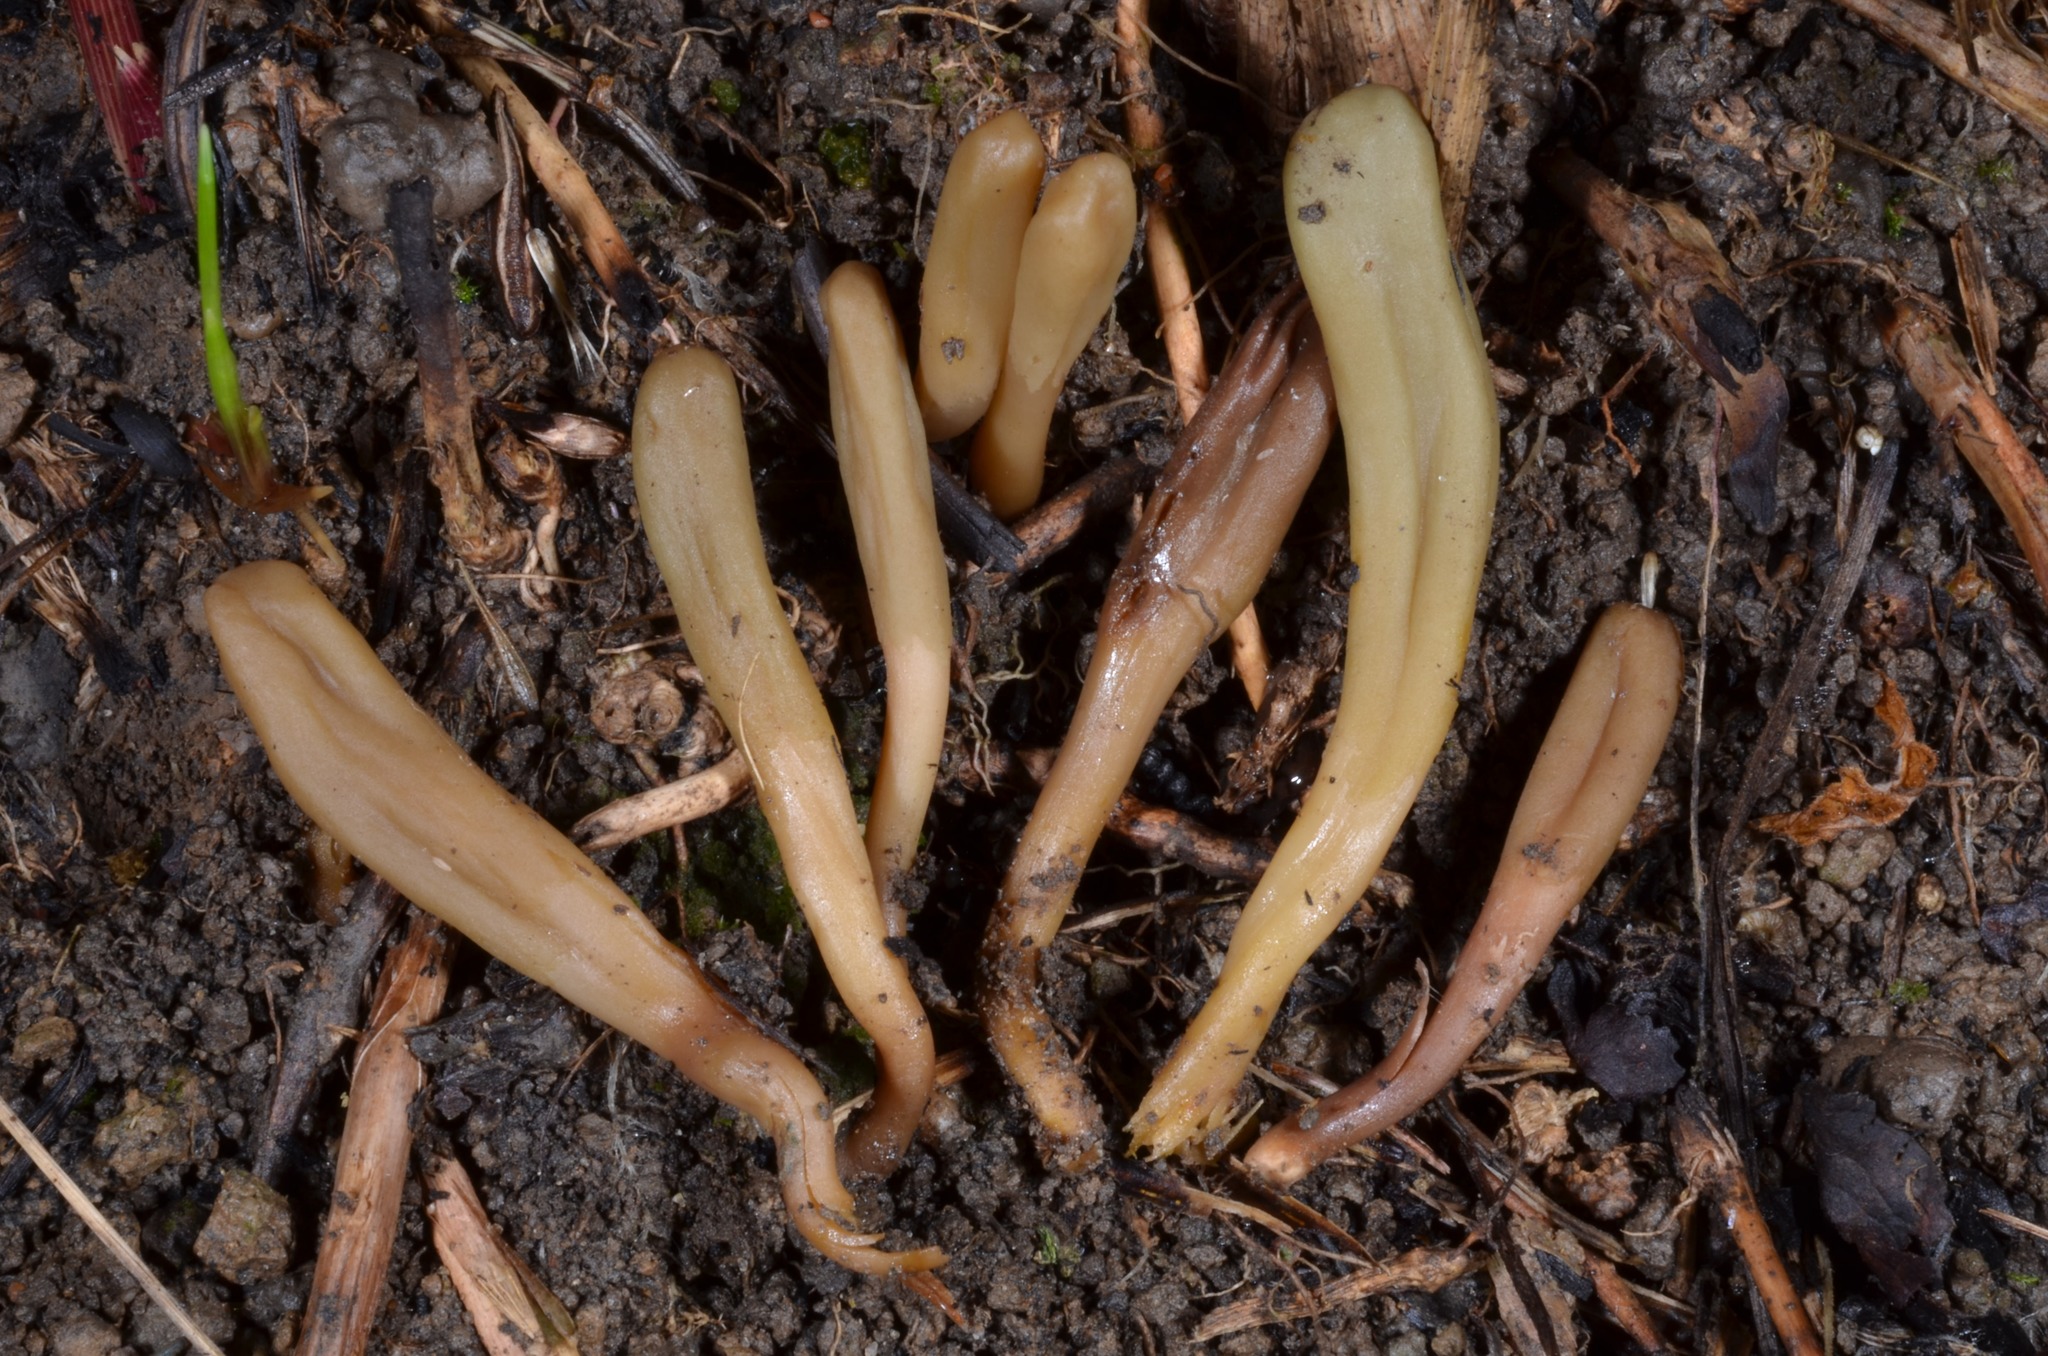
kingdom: Fungi
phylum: Ascomycota
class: Leotiomycetes
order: Leotiales
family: Leotiaceae
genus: Microglossum
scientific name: Microglossum olivaceum
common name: Olive earth-tongue
